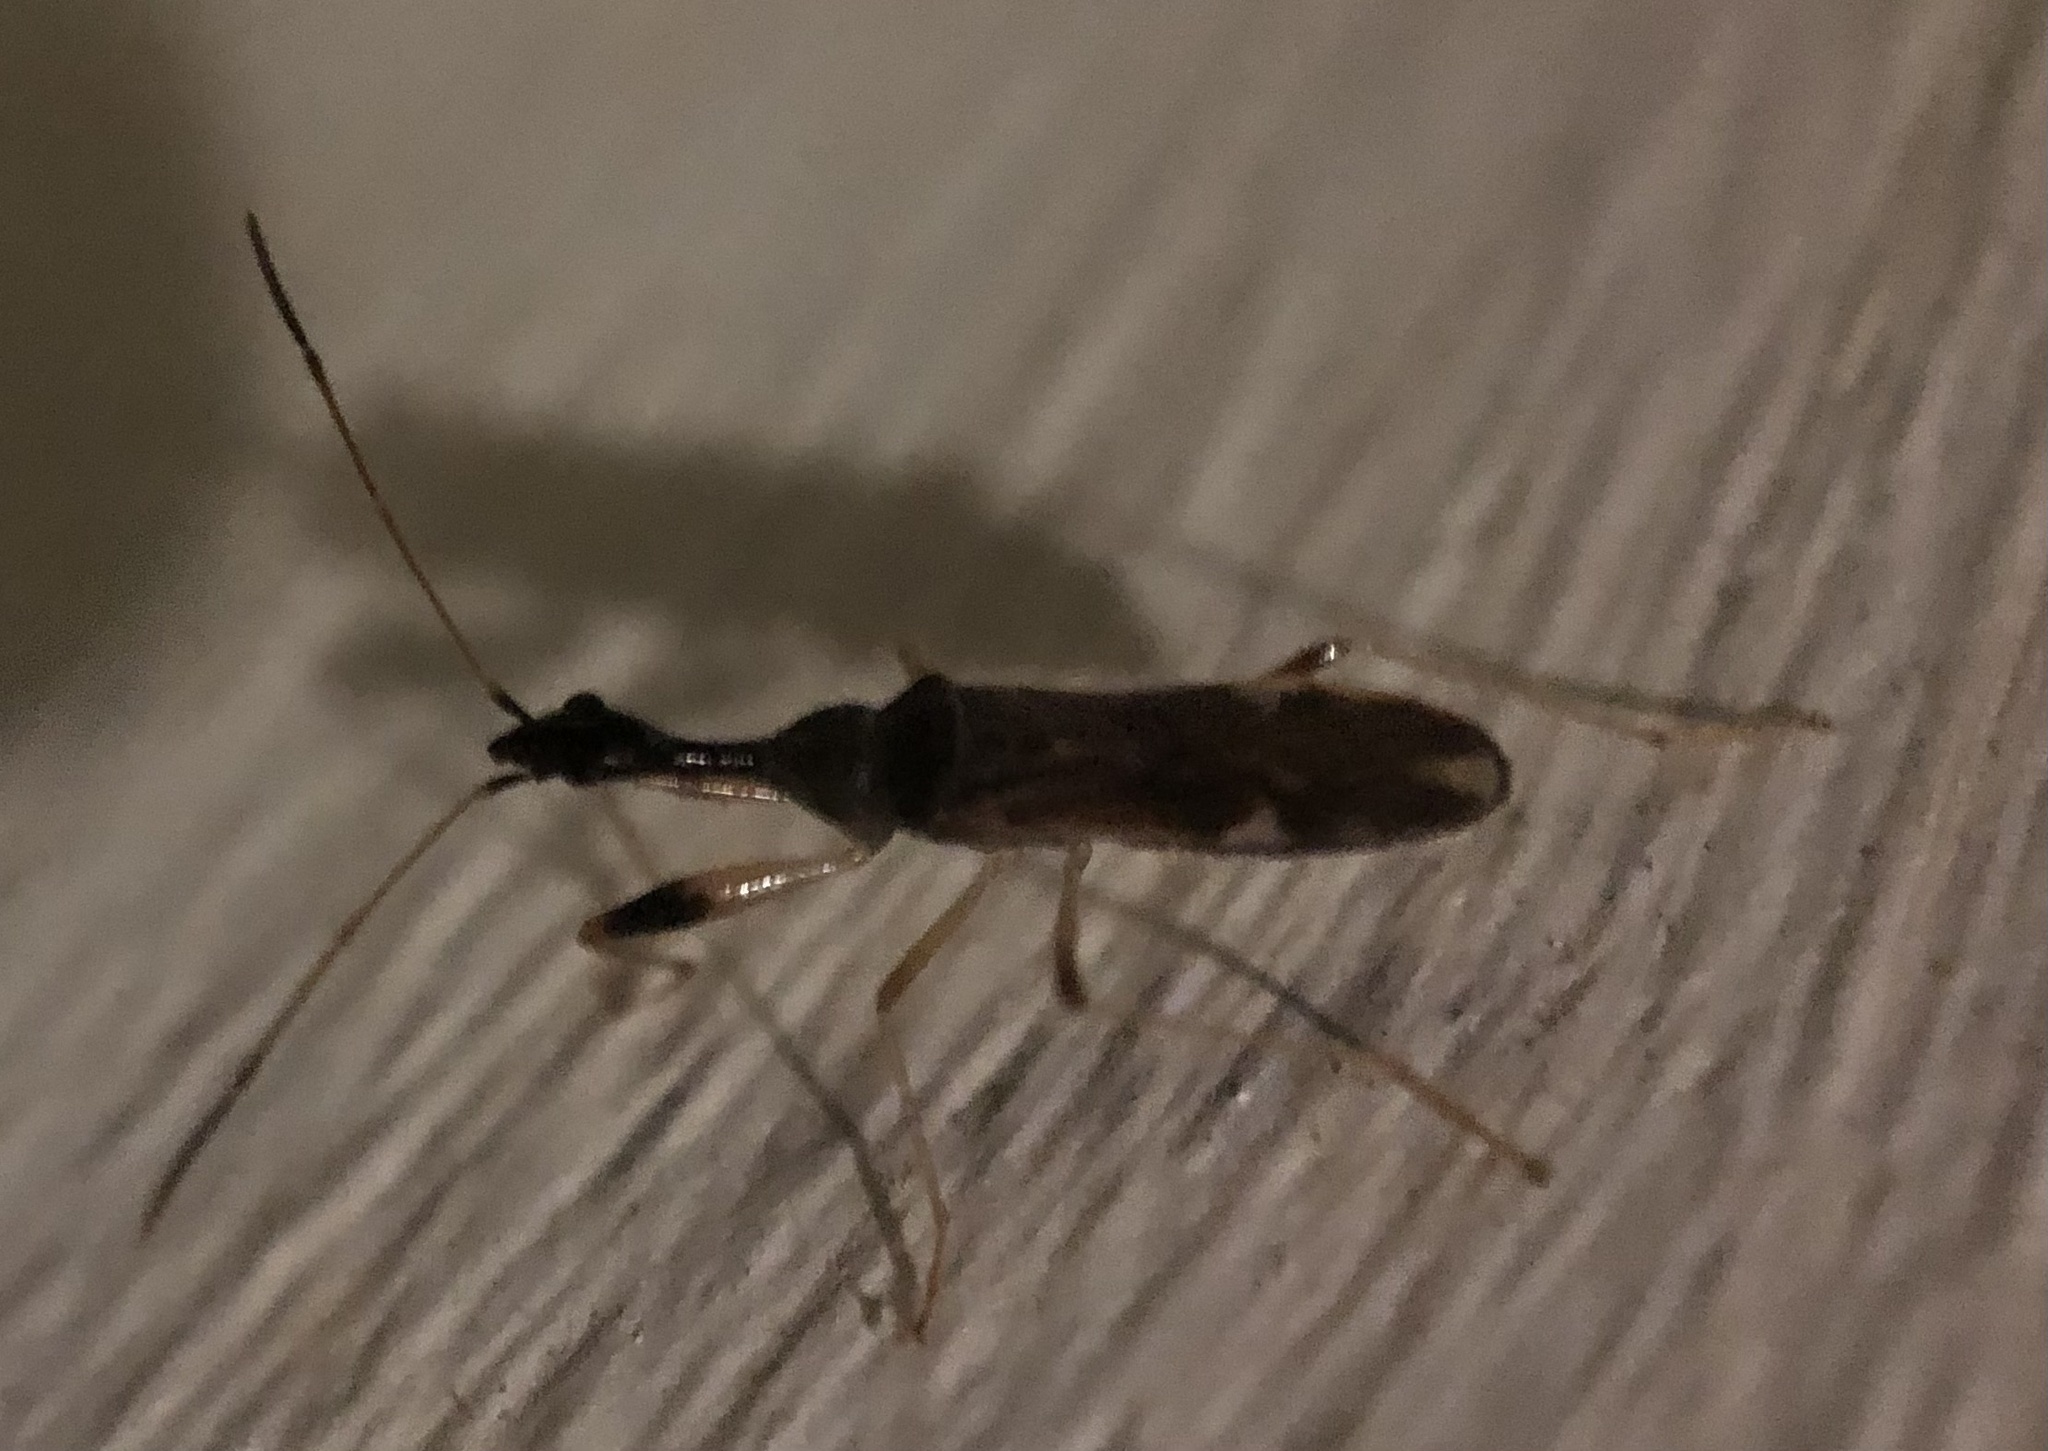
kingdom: Animalia
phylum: Arthropoda
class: Insecta
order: Hemiptera
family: Rhyparochromidae
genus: Myodocha
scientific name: Myodocha serripes
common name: Long-necked seed bug
